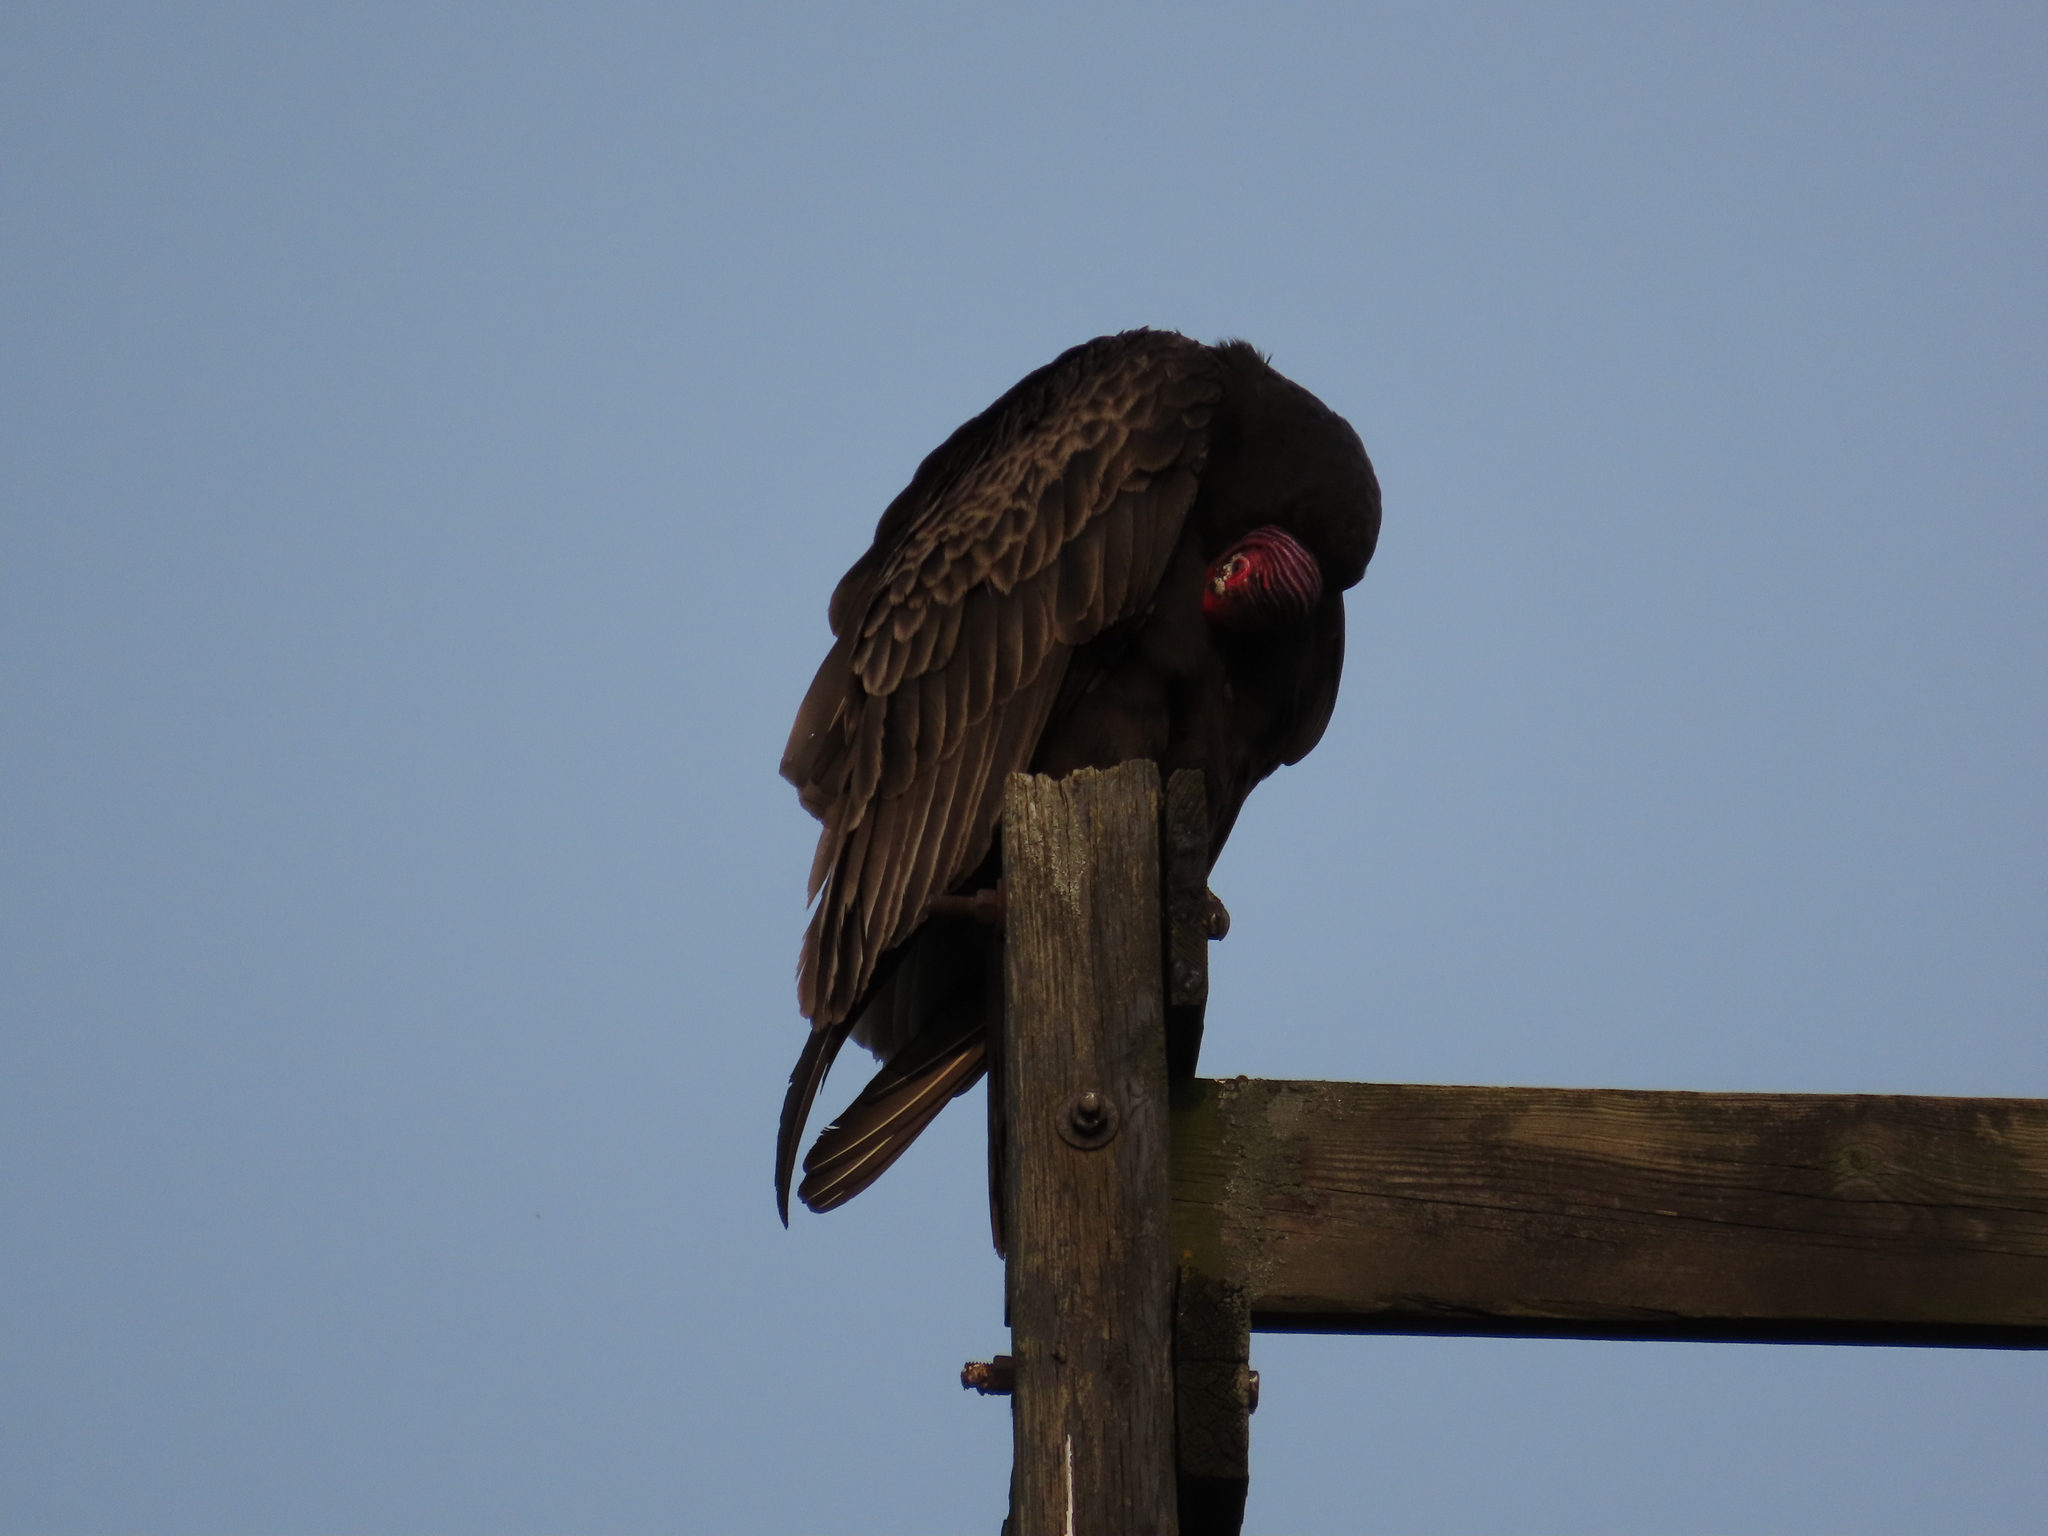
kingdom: Animalia
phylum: Chordata
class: Aves
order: Accipitriformes
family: Cathartidae
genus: Cathartes
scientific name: Cathartes aura
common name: Turkey vulture
